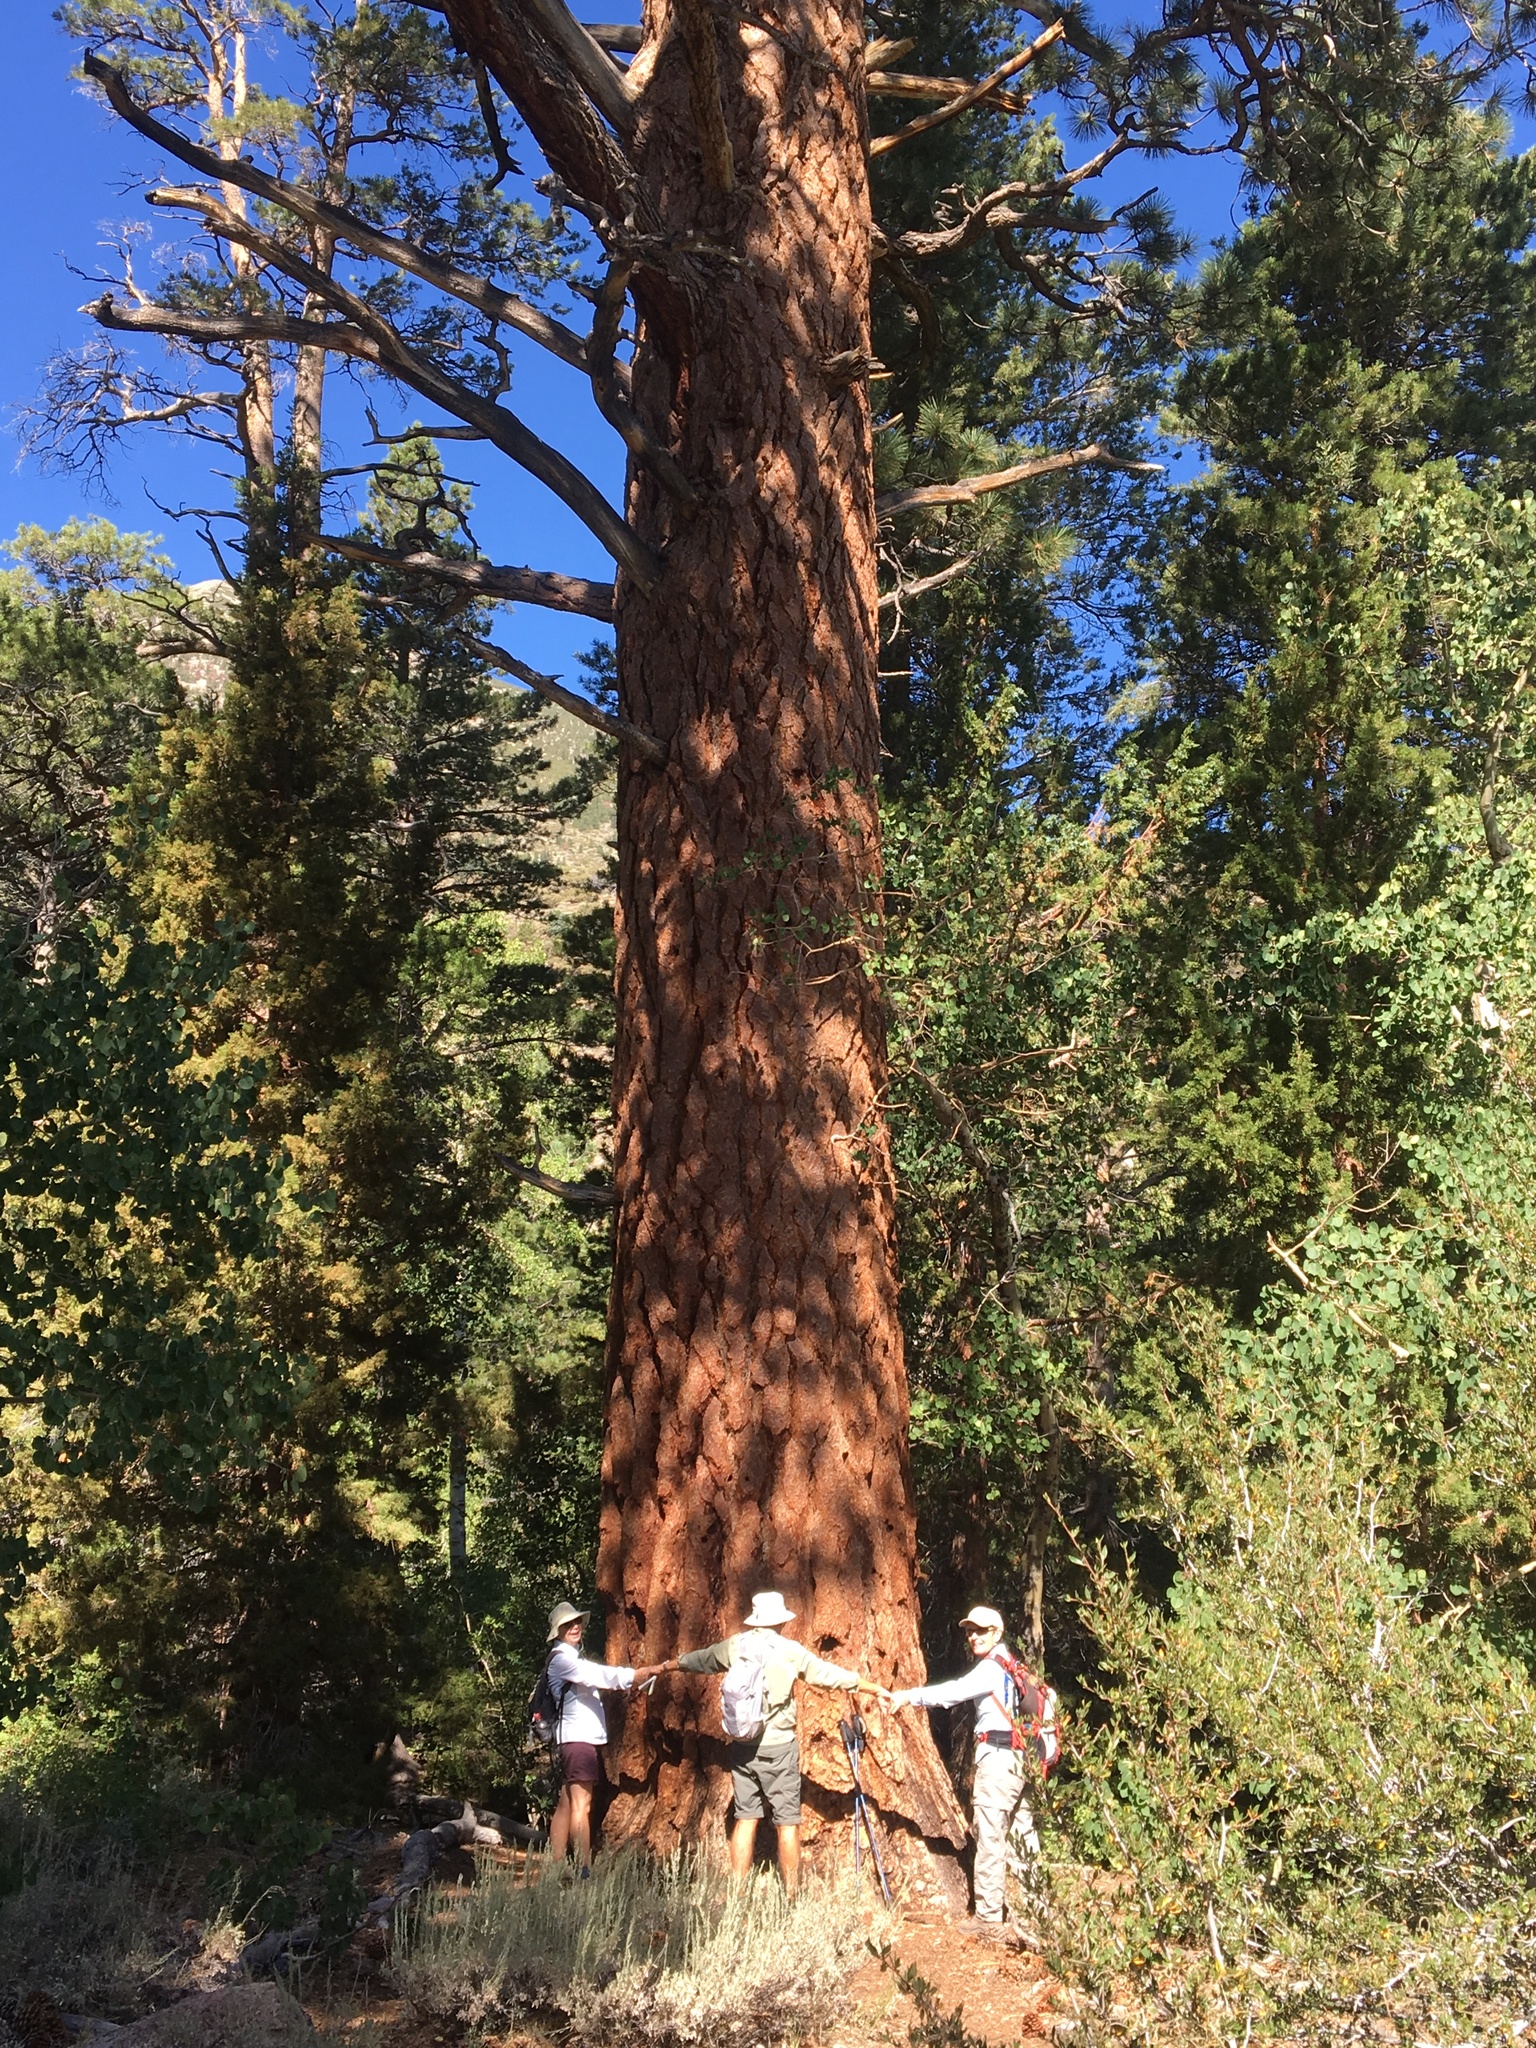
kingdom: Plantae
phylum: Tracheophyta
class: Pinopsida
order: Pinales
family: Pinaceae
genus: Pinus
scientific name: Pinus jeffreyi
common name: Jeffrey pine
